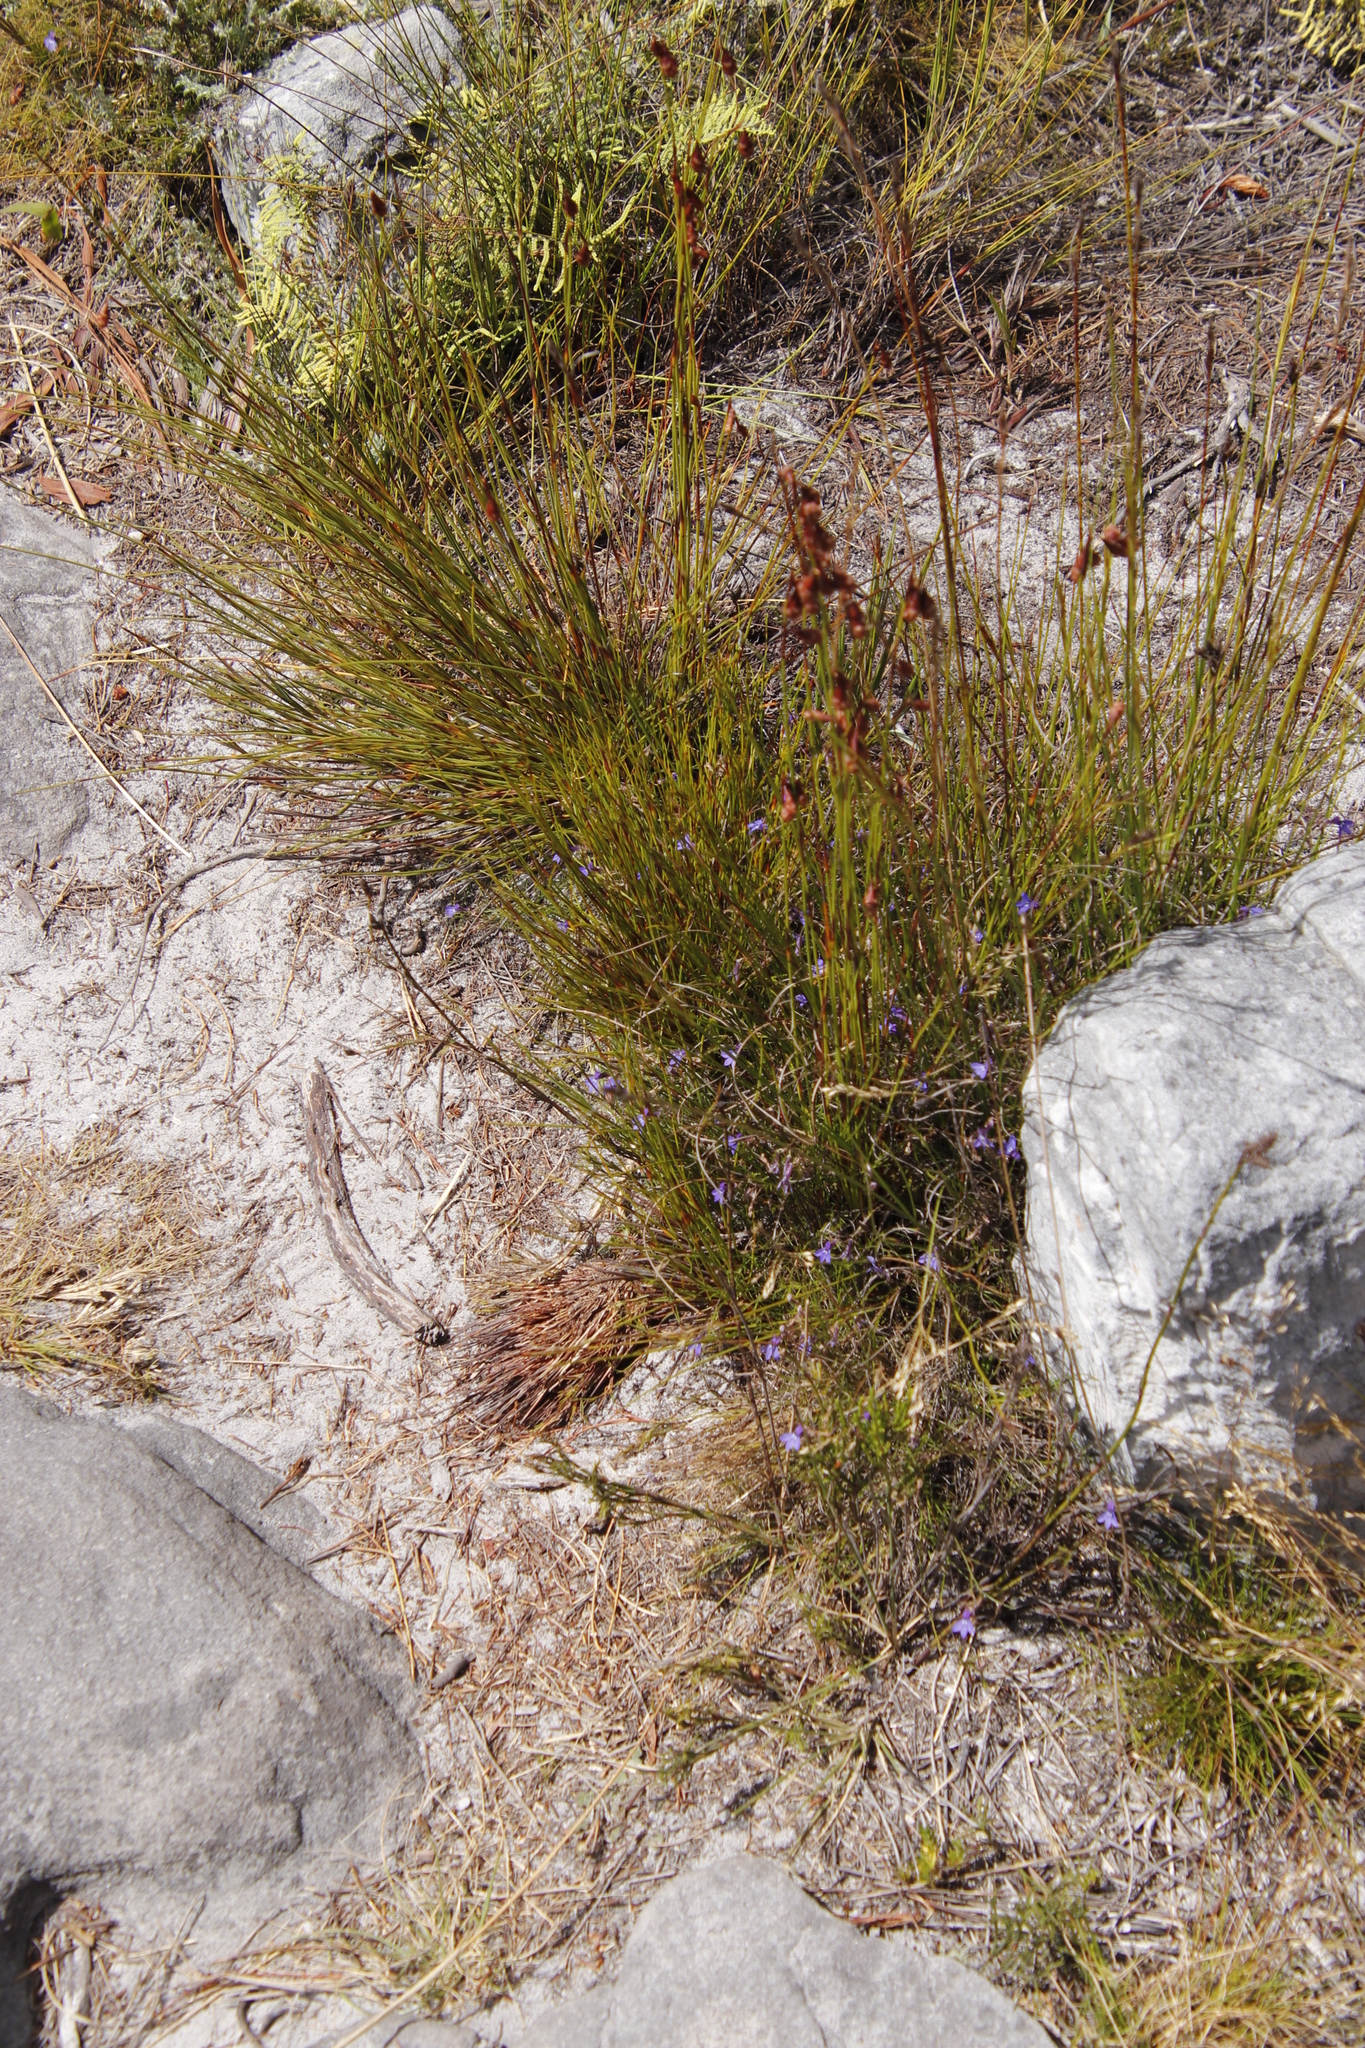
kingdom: Plantae
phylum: Tracheophyta
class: Magnoliopsida
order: Asterales
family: Campanulaceae
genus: Lobelia
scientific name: Lobelia setacea
